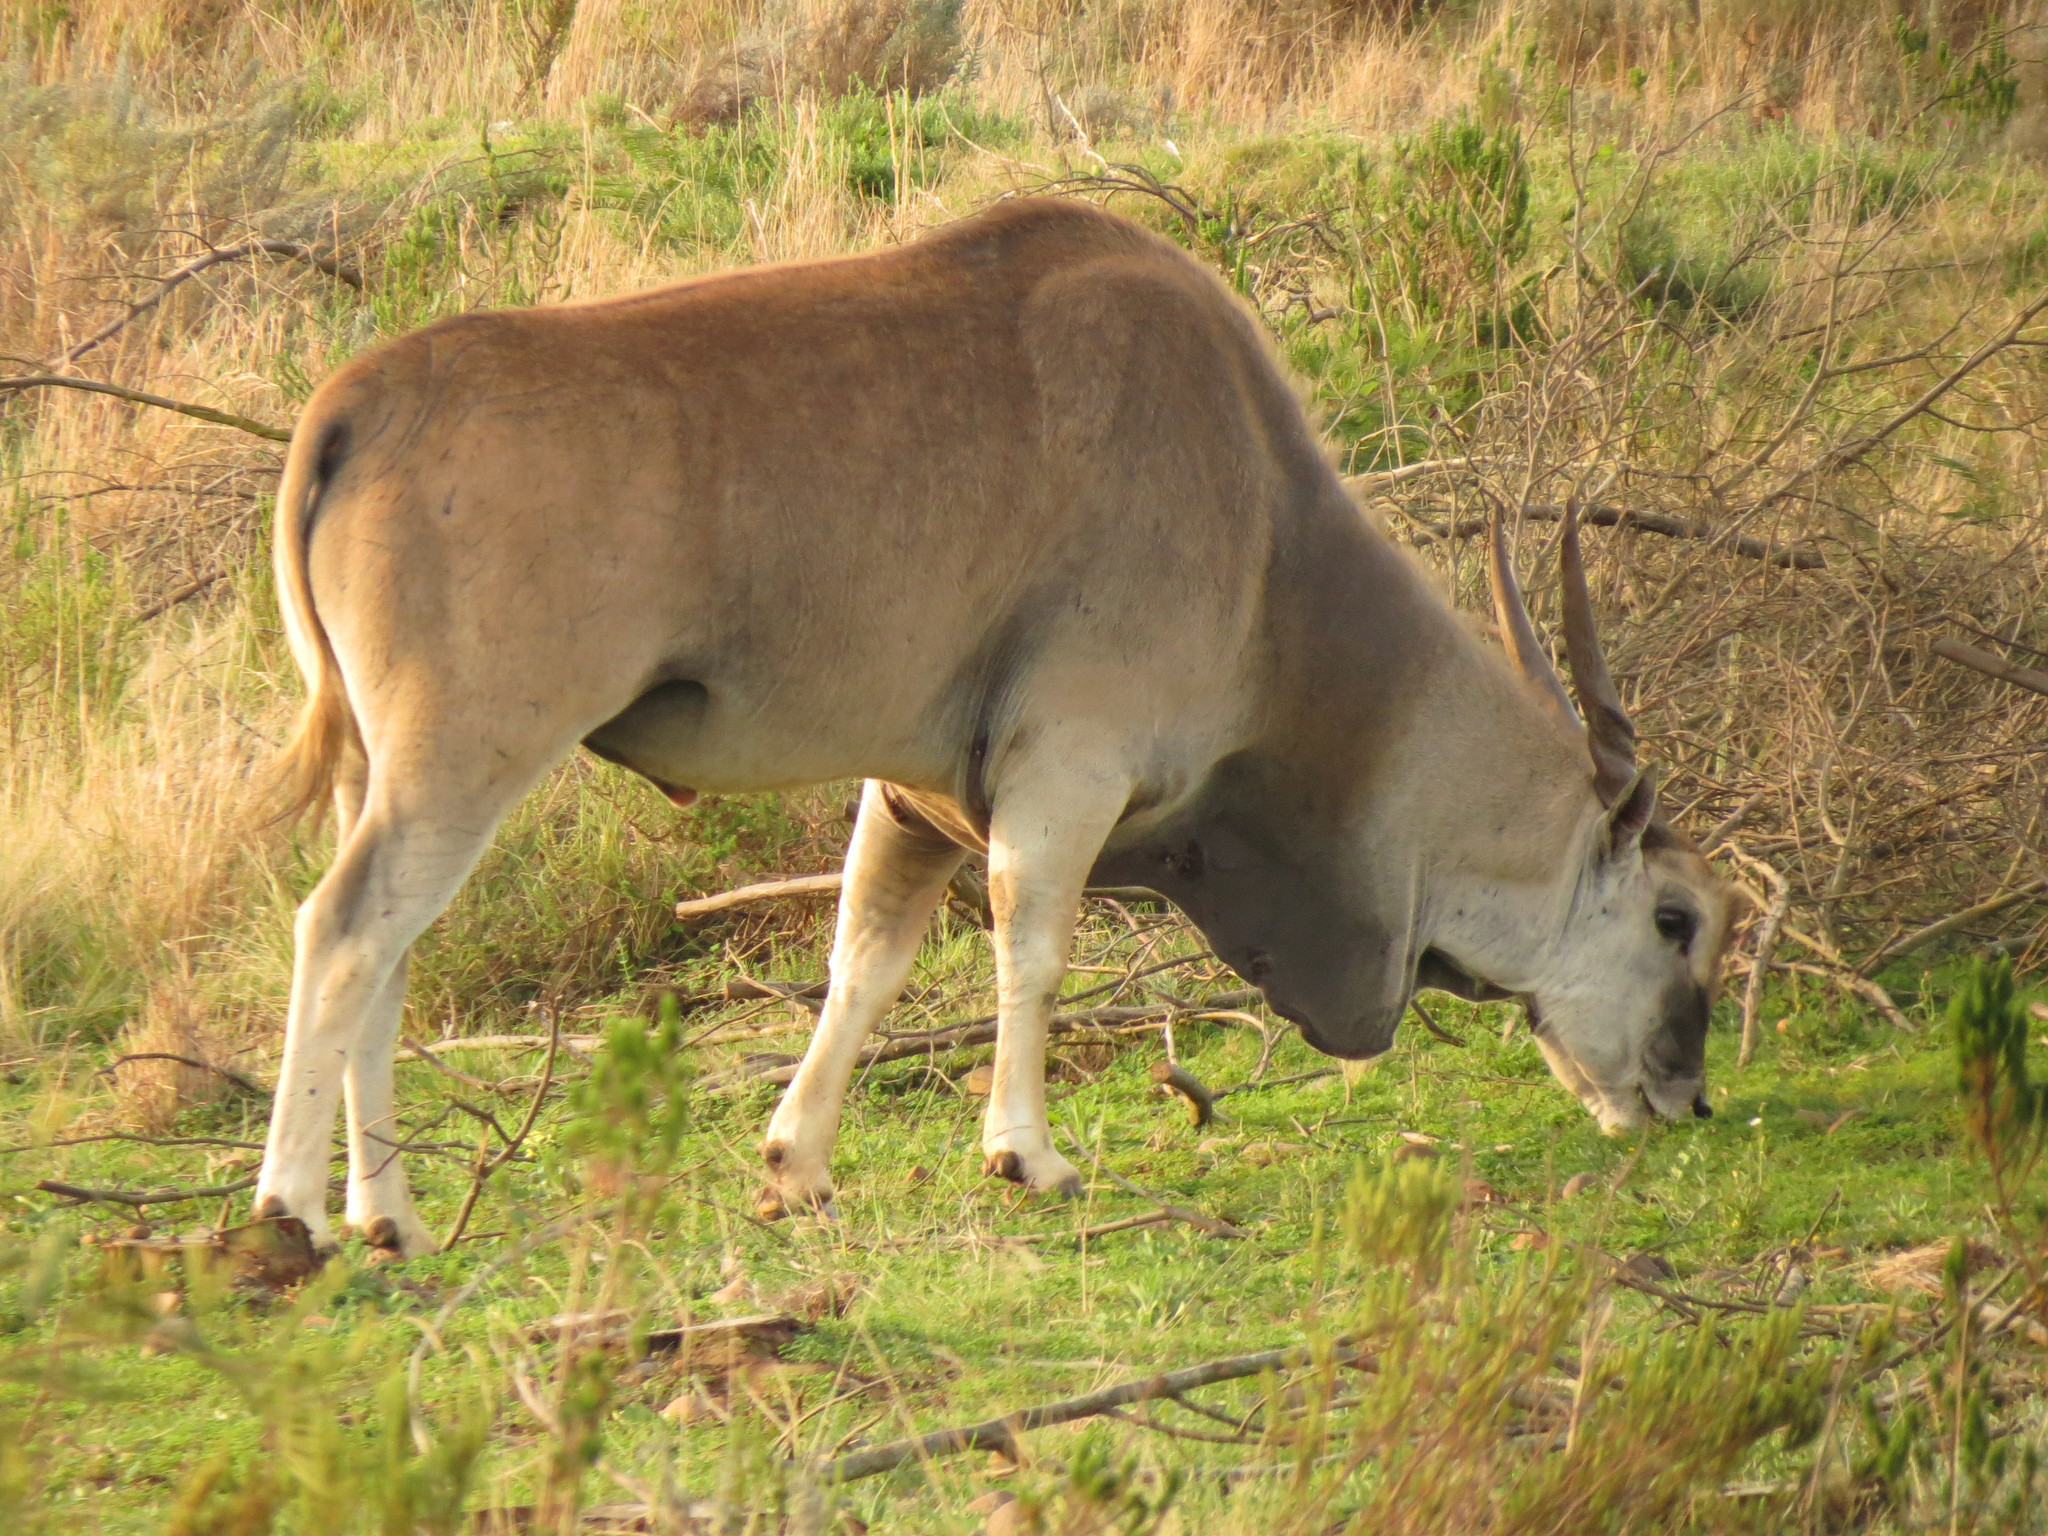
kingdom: Animalia
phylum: Chordata
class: Mammalia
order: Artiodactyla
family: Bovidae
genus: Taurotragus
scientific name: Taurotragus oryx
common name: Common eland
